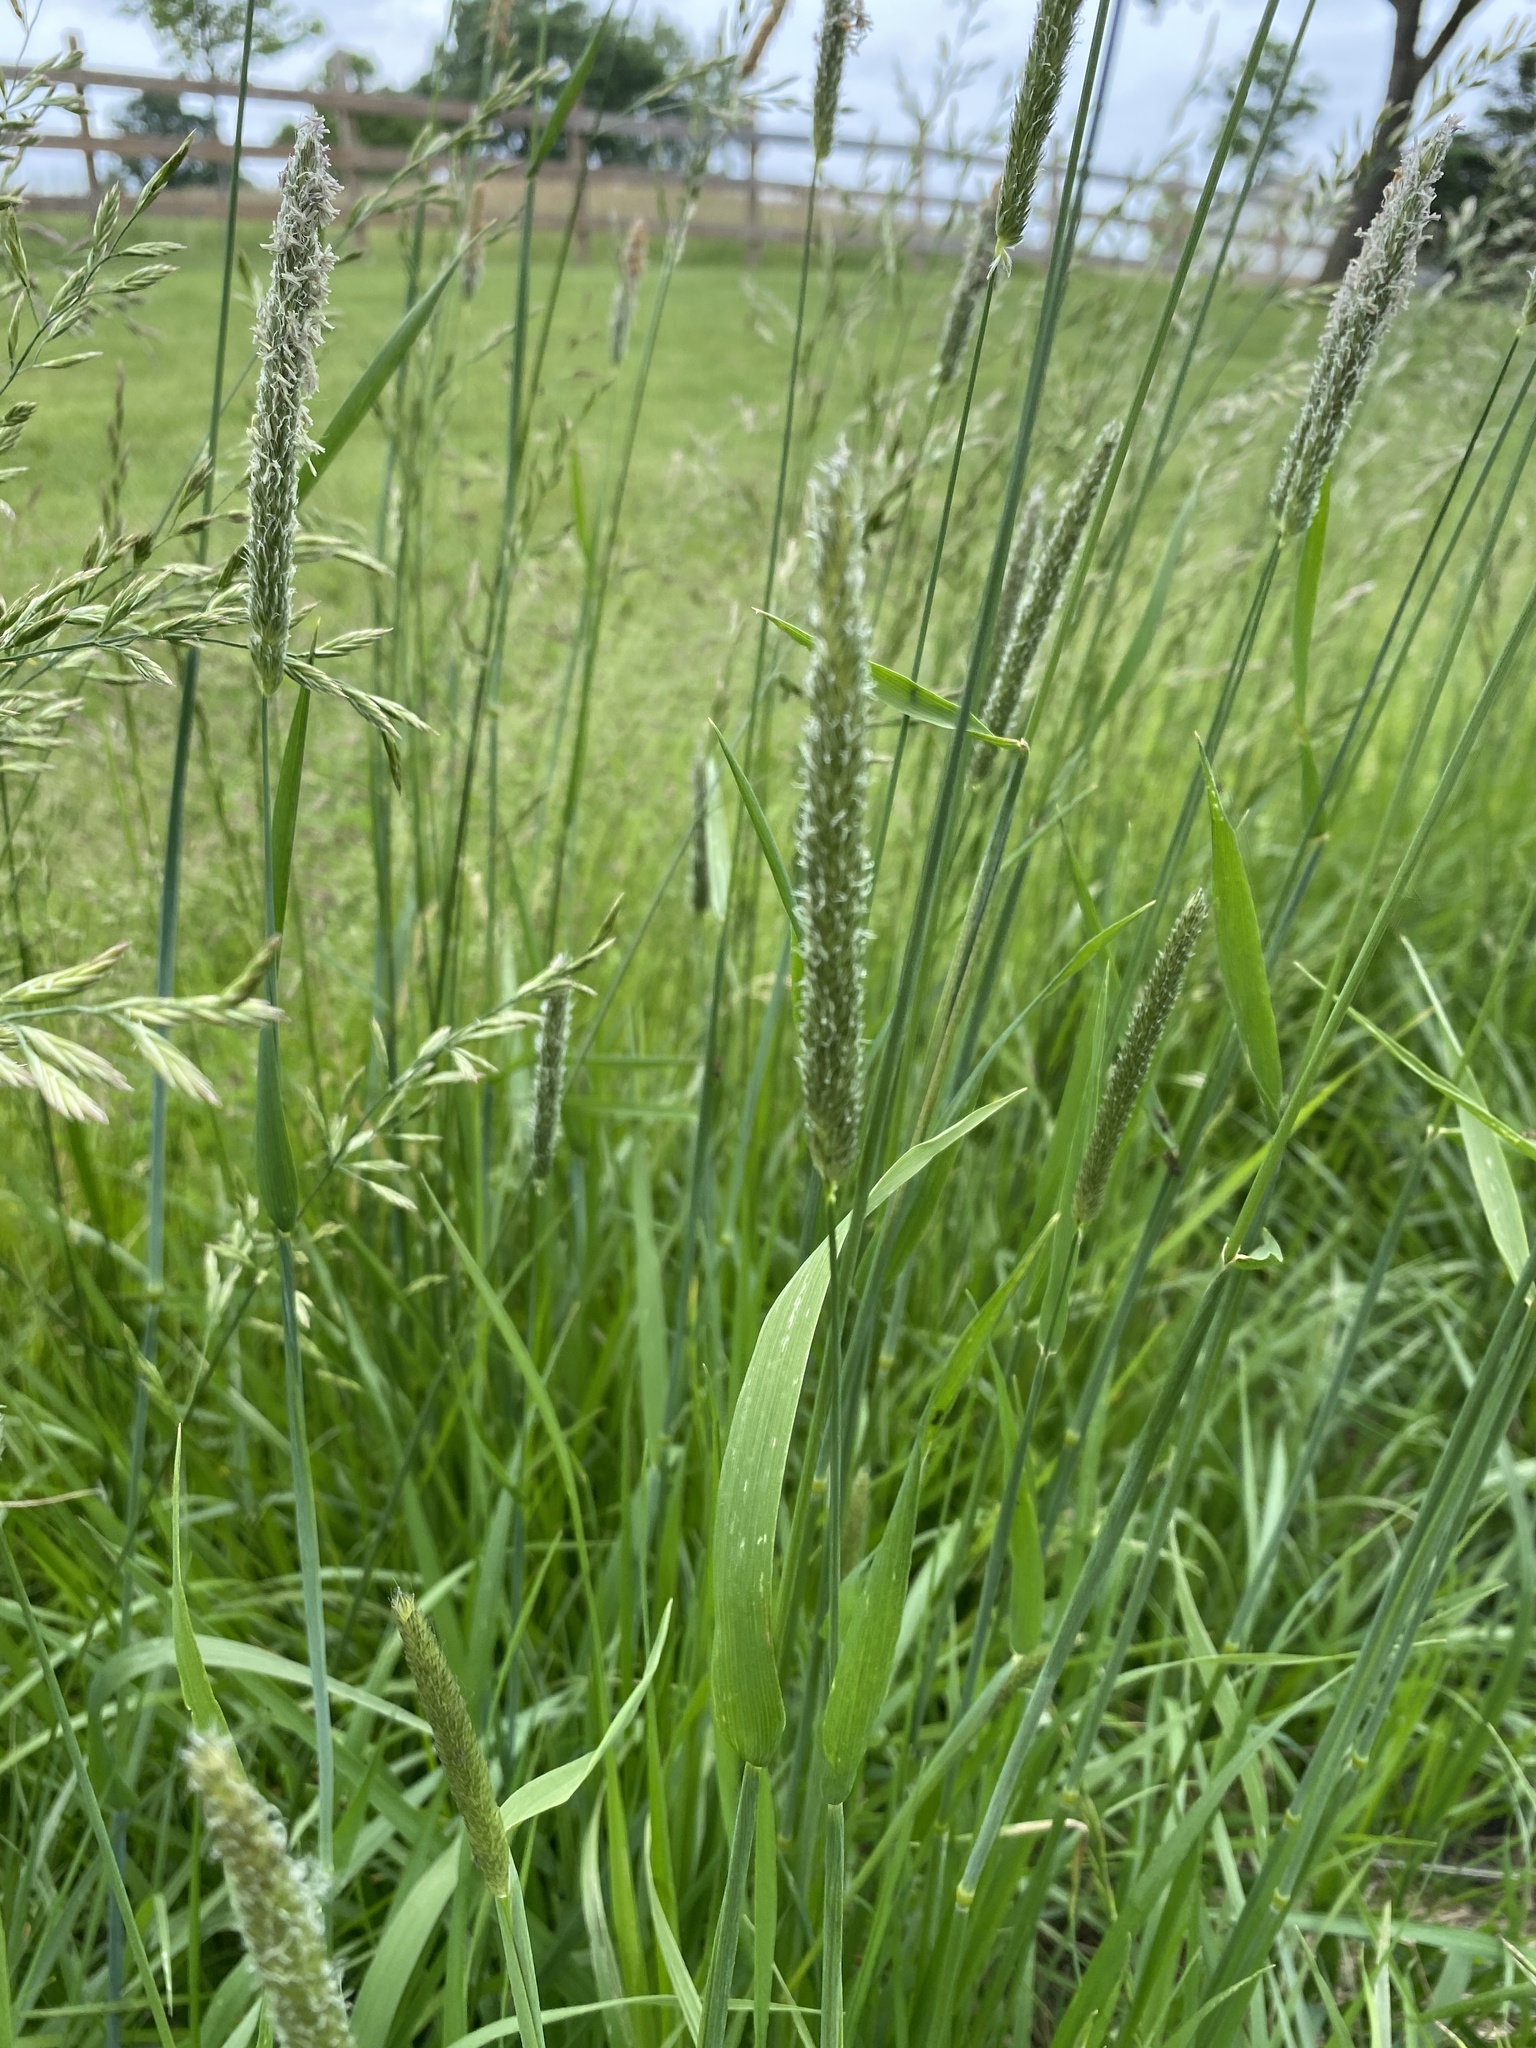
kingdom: Plantae
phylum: Tracheophyta
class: Liliopsida
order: Poales
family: Poaceae
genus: Alopecurus
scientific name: Alopecurus pratensis
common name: Meadow foxtail
